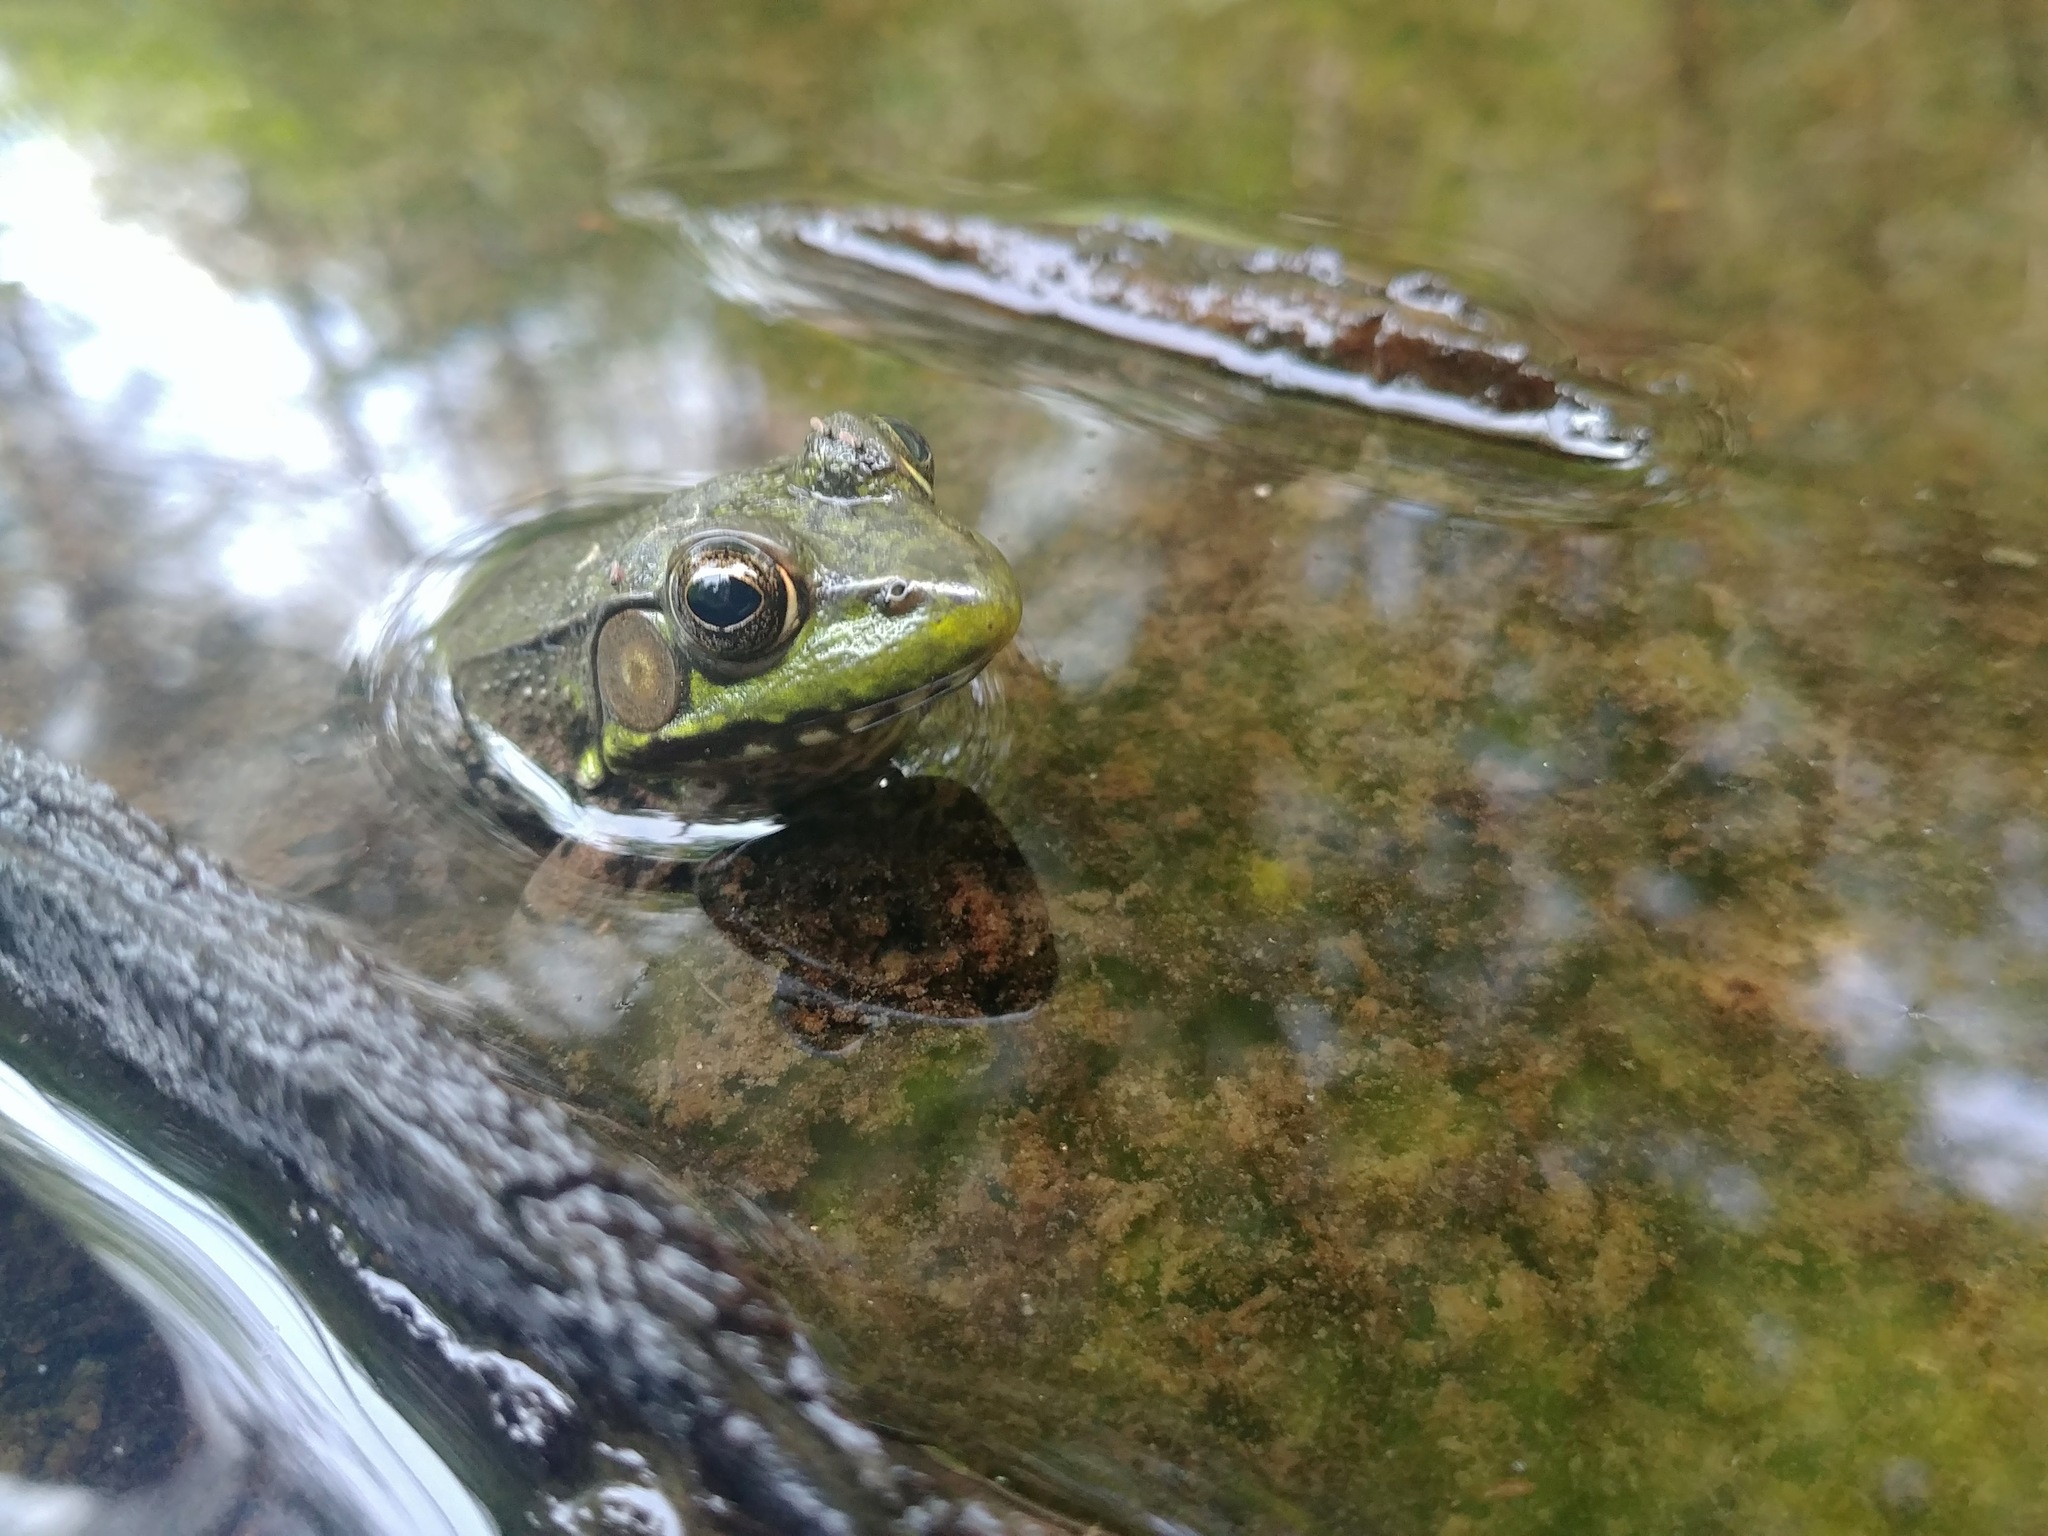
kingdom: Animalia
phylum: Chordata
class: Amphibia
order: Anura
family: Ranidae
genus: Lithobates
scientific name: Lithobates clamitans
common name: Green frog
